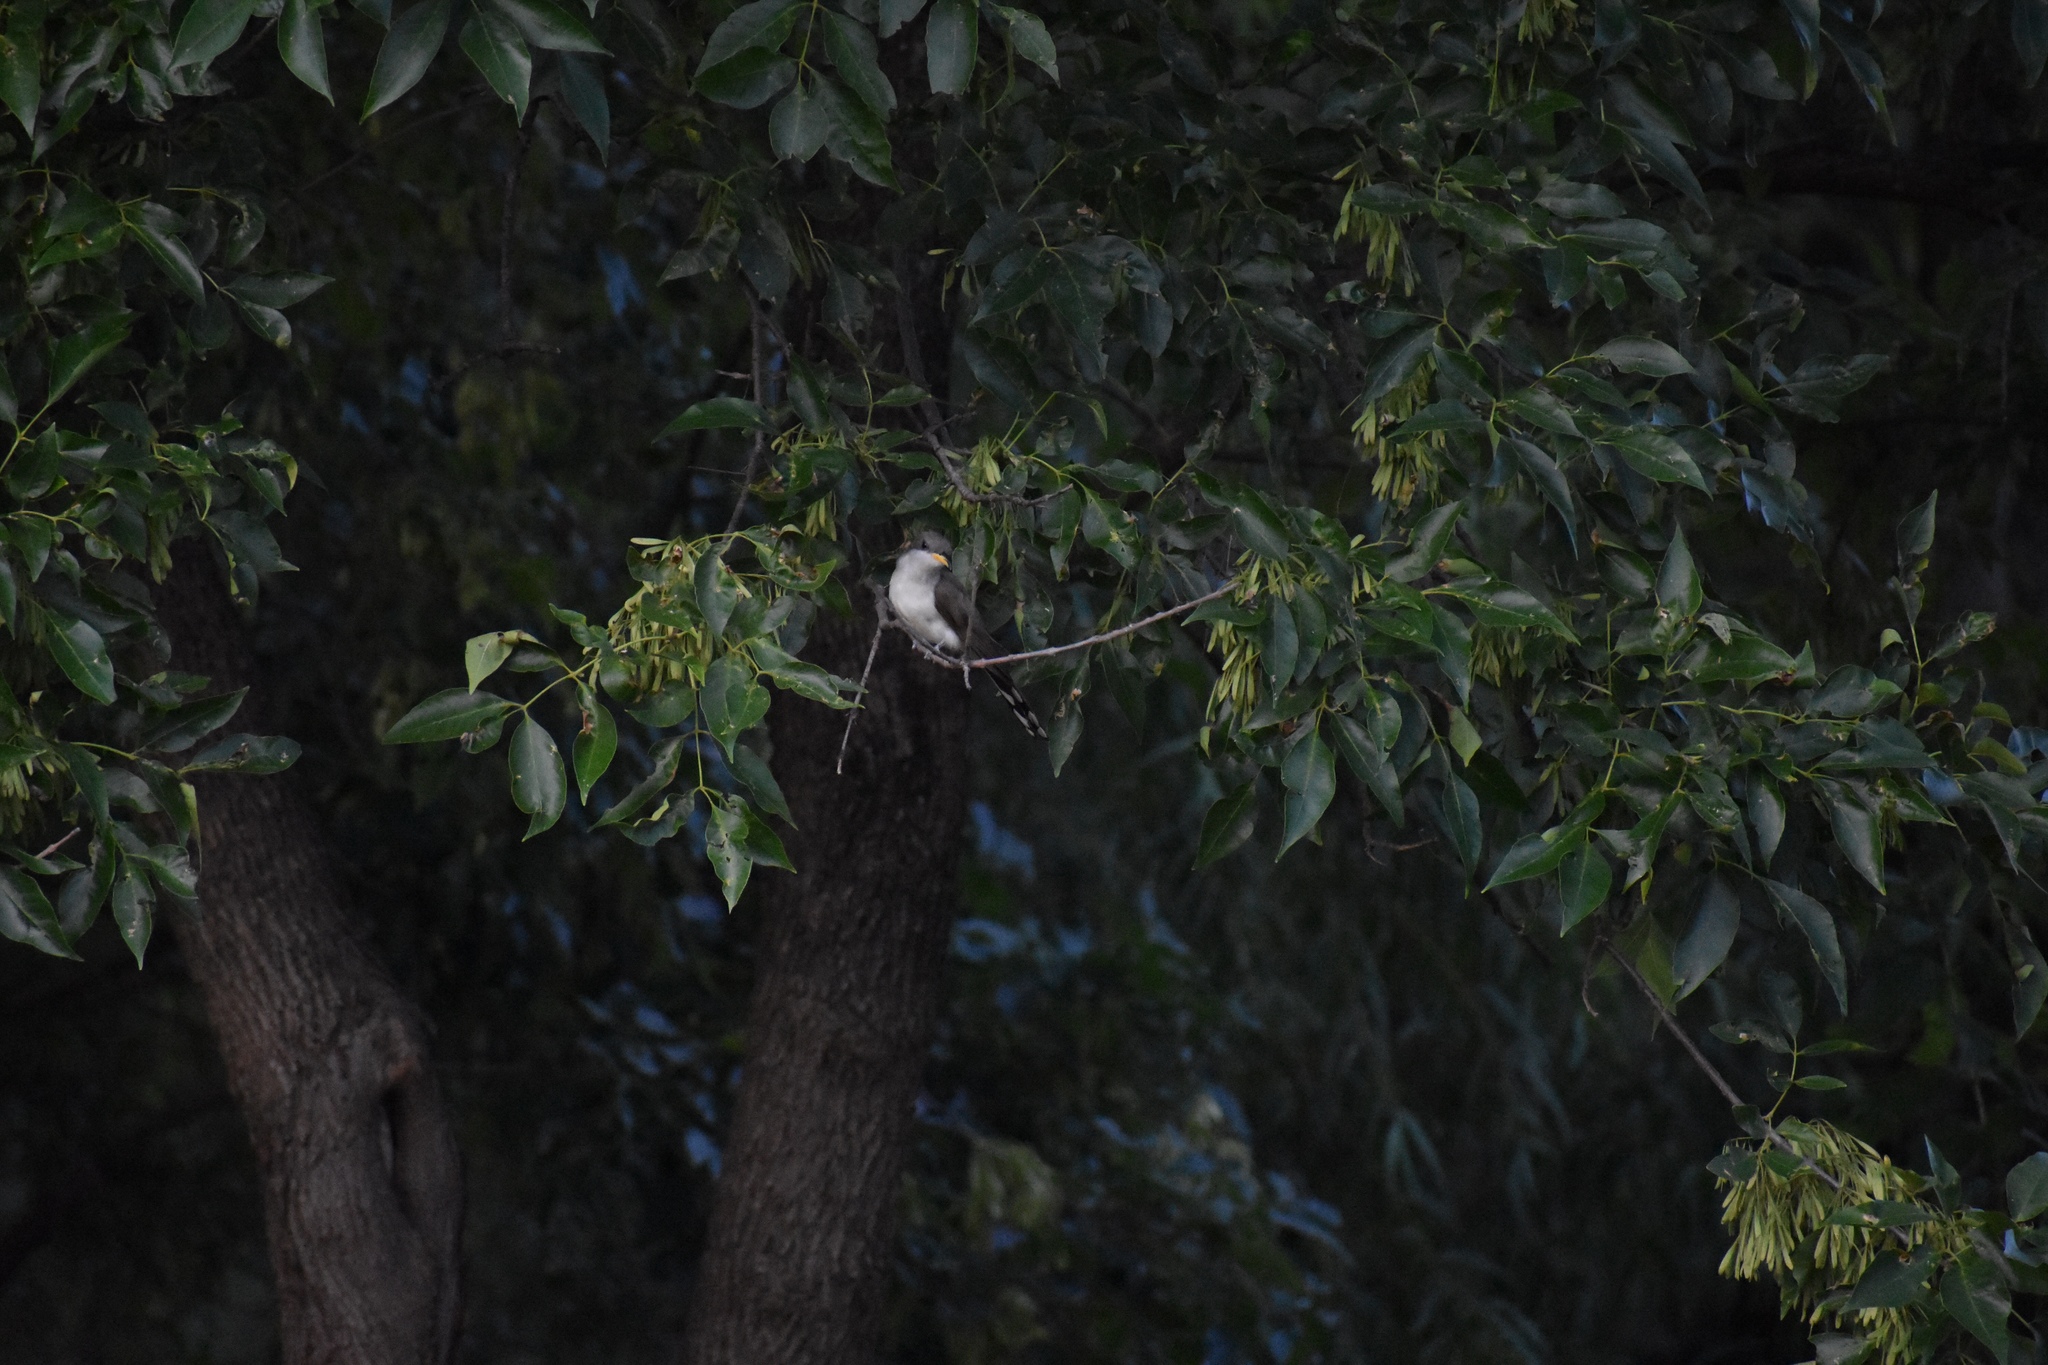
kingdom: Animalia
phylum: Chordata
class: Aves
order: Cuculiformes
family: Cuculidae
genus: Coccyzus
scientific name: Coccyzus americanus
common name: Yellow-billed cuckoo
